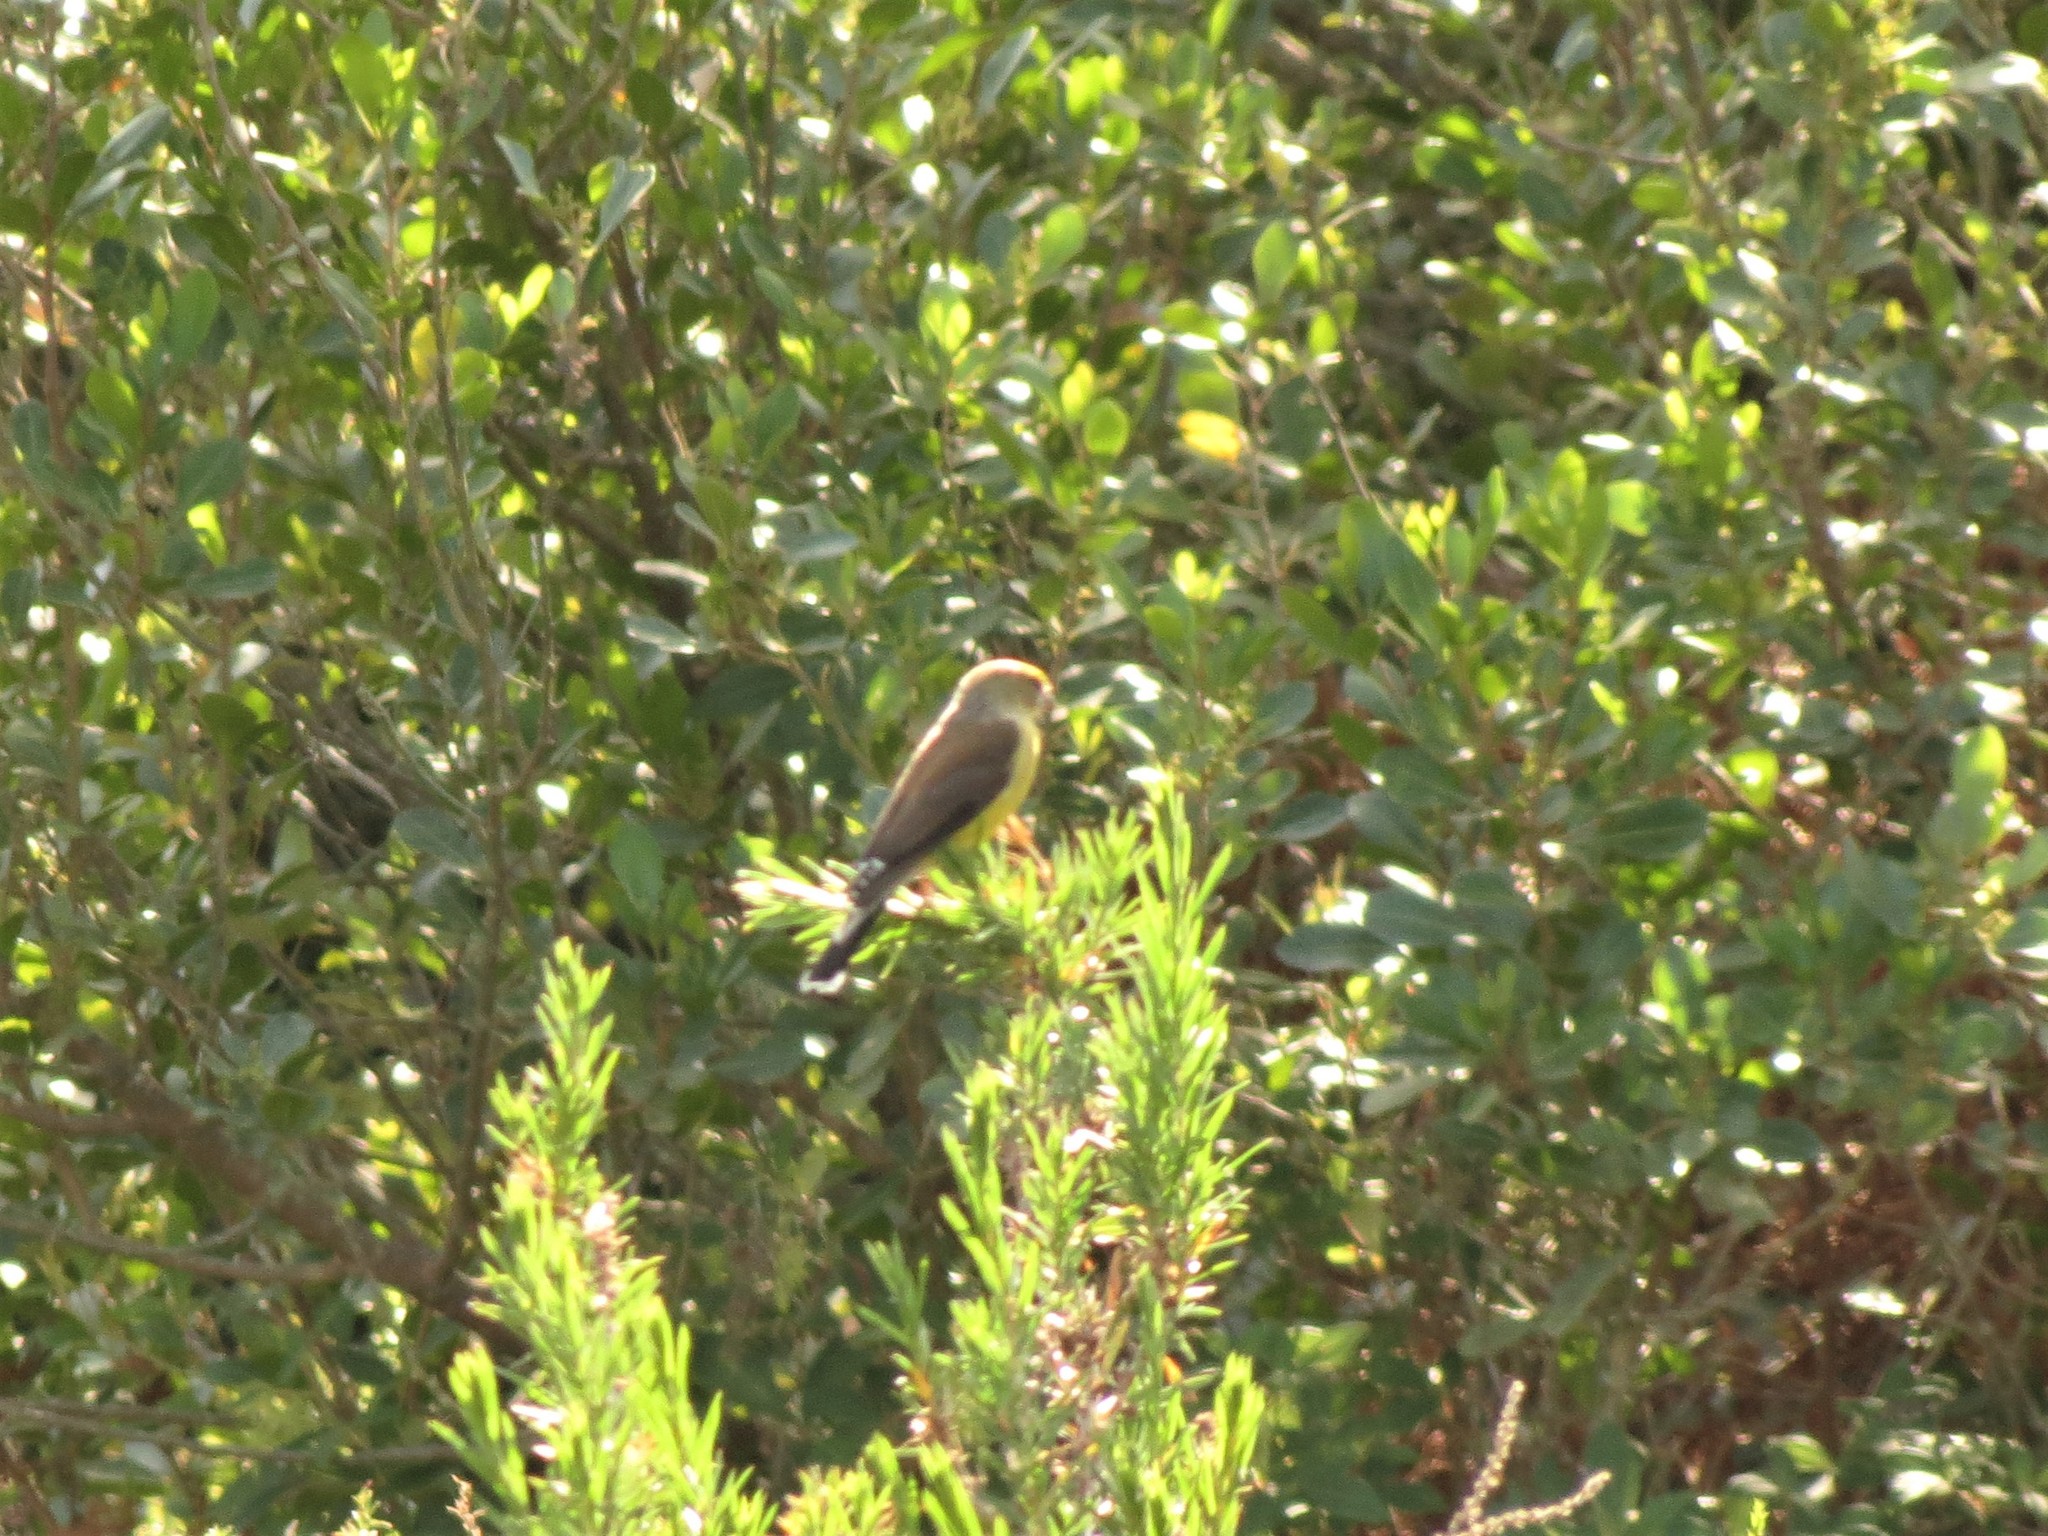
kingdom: Animalia
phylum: Chordata
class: Aves
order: Passeriformes
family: Fringillidae
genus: Crithagra
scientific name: Crithagra totta
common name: Cape siskin
